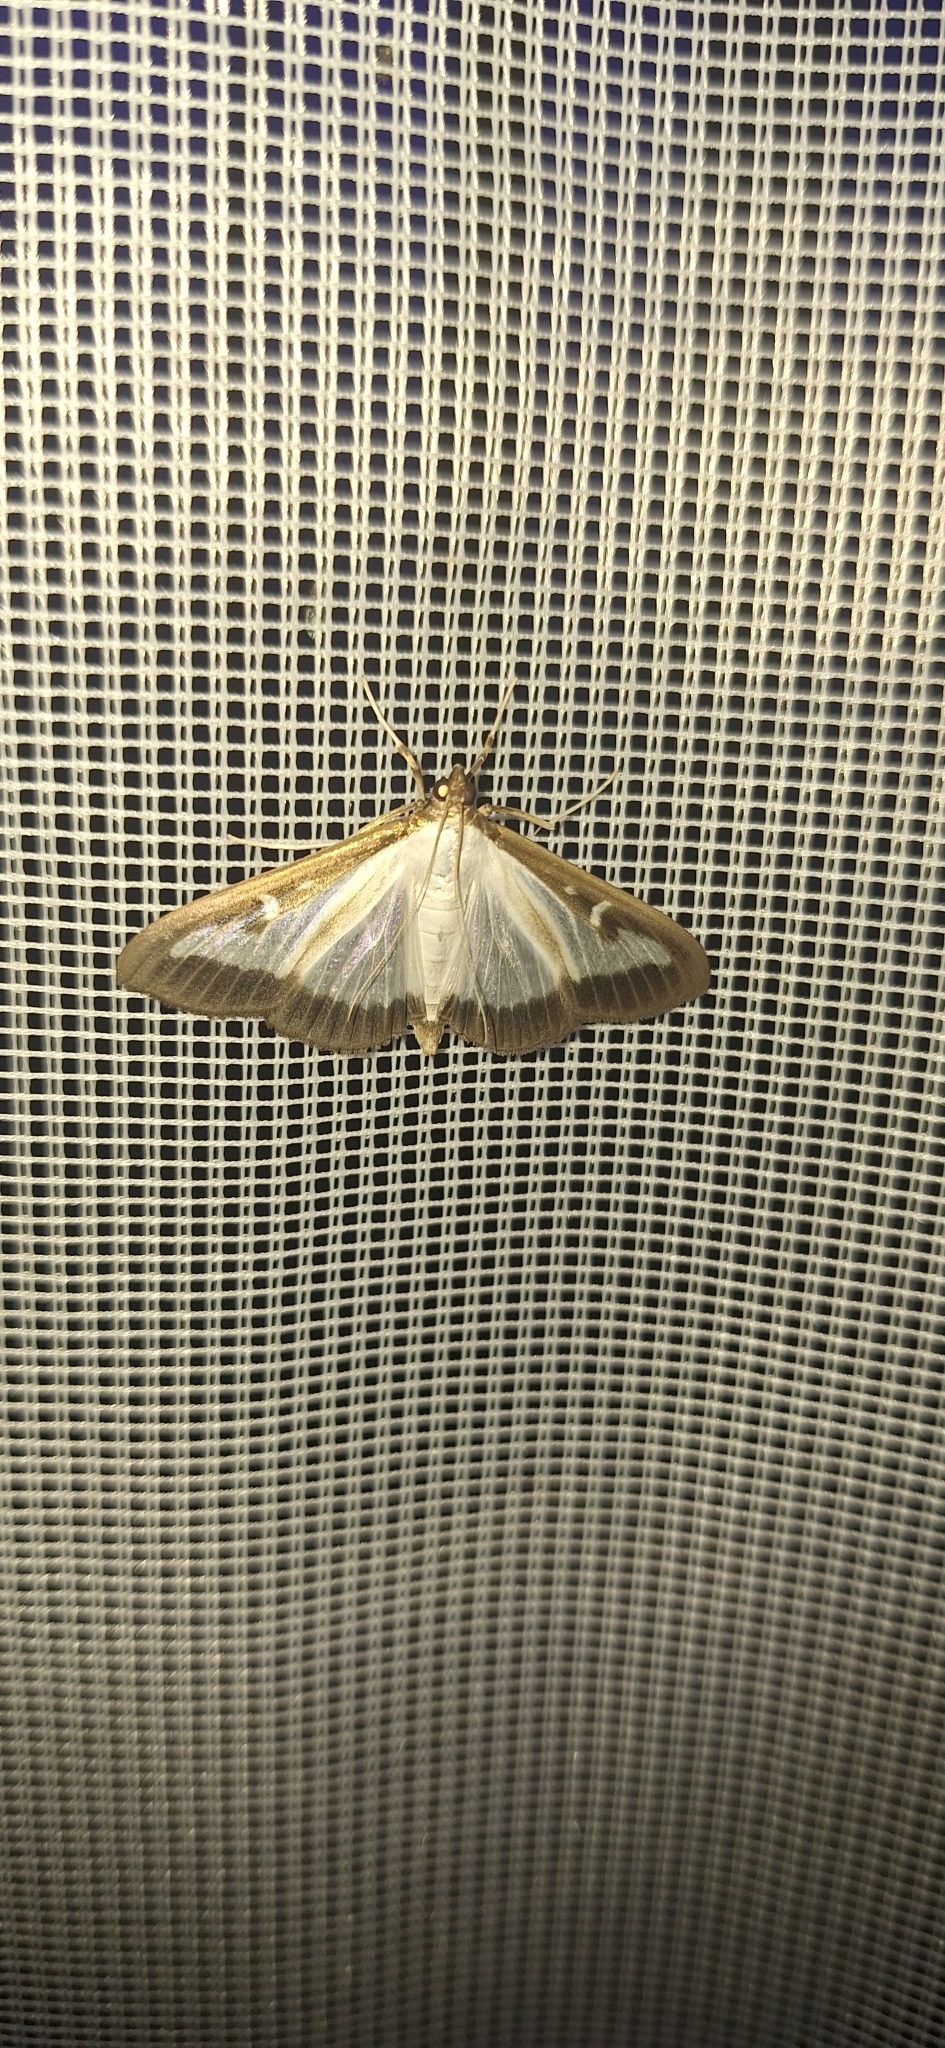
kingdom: Animalia
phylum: Arthropoda
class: Insecta
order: Lepidoptera
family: Crambidae
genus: Cydalima
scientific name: Cydalima perspectalis
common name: Box tree moth
